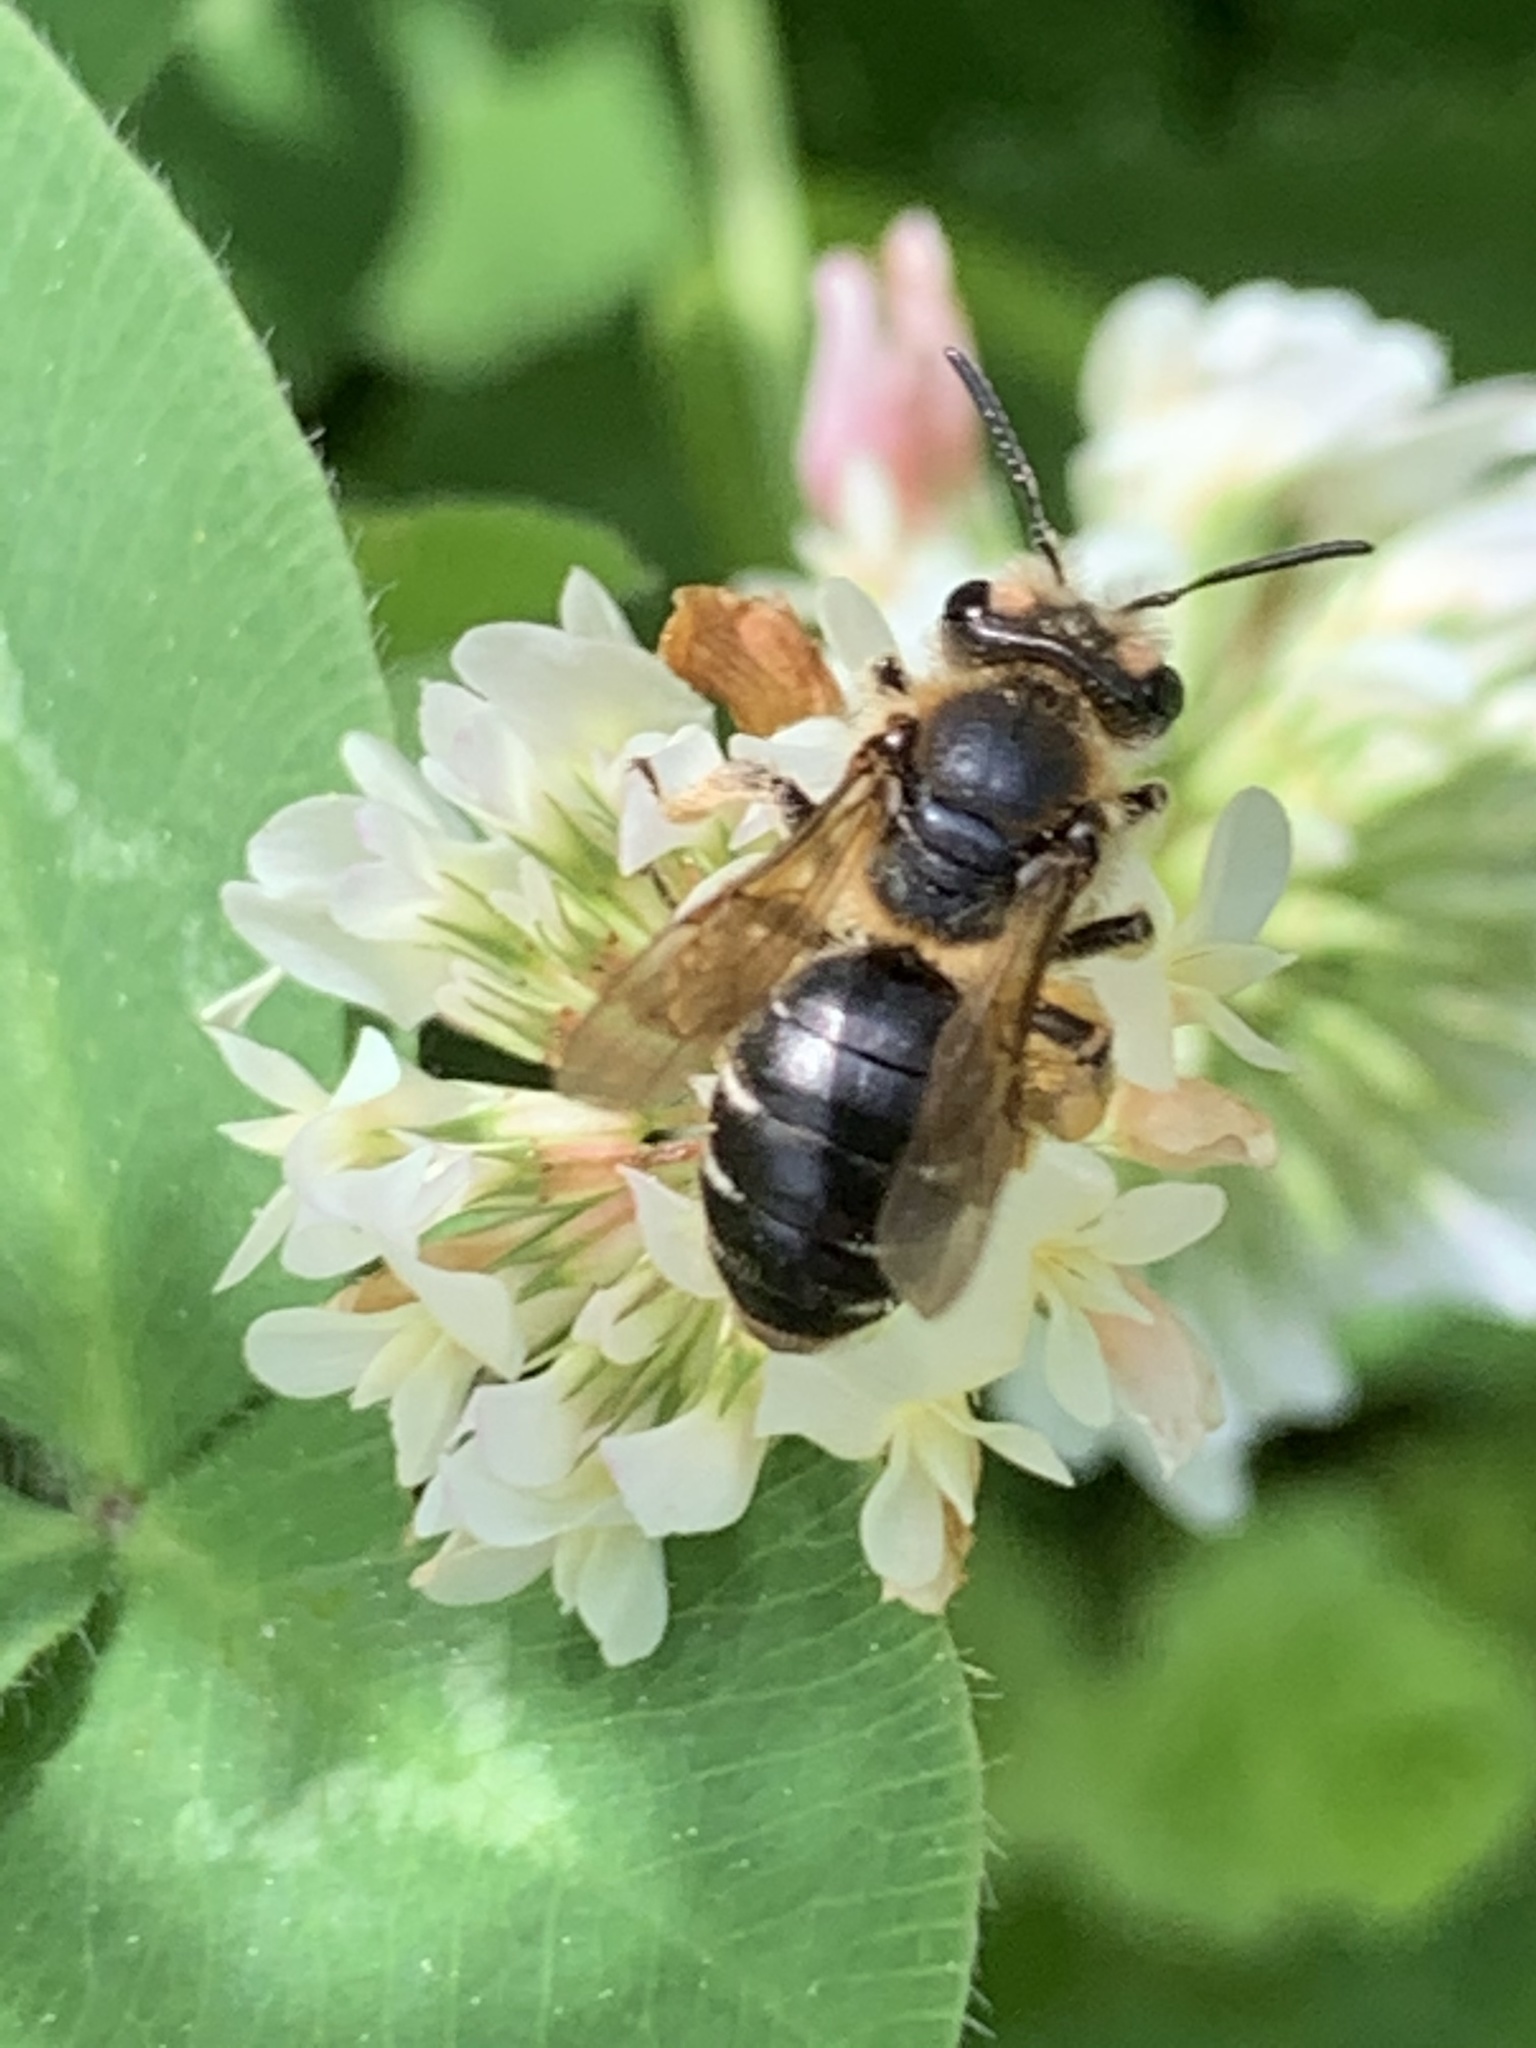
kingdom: Animalia
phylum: Arthropoda
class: Insecta
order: Hymenoptera
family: Andrenidae
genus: Andrena
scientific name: Andrena wilkella
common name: Wilke's mining bee
